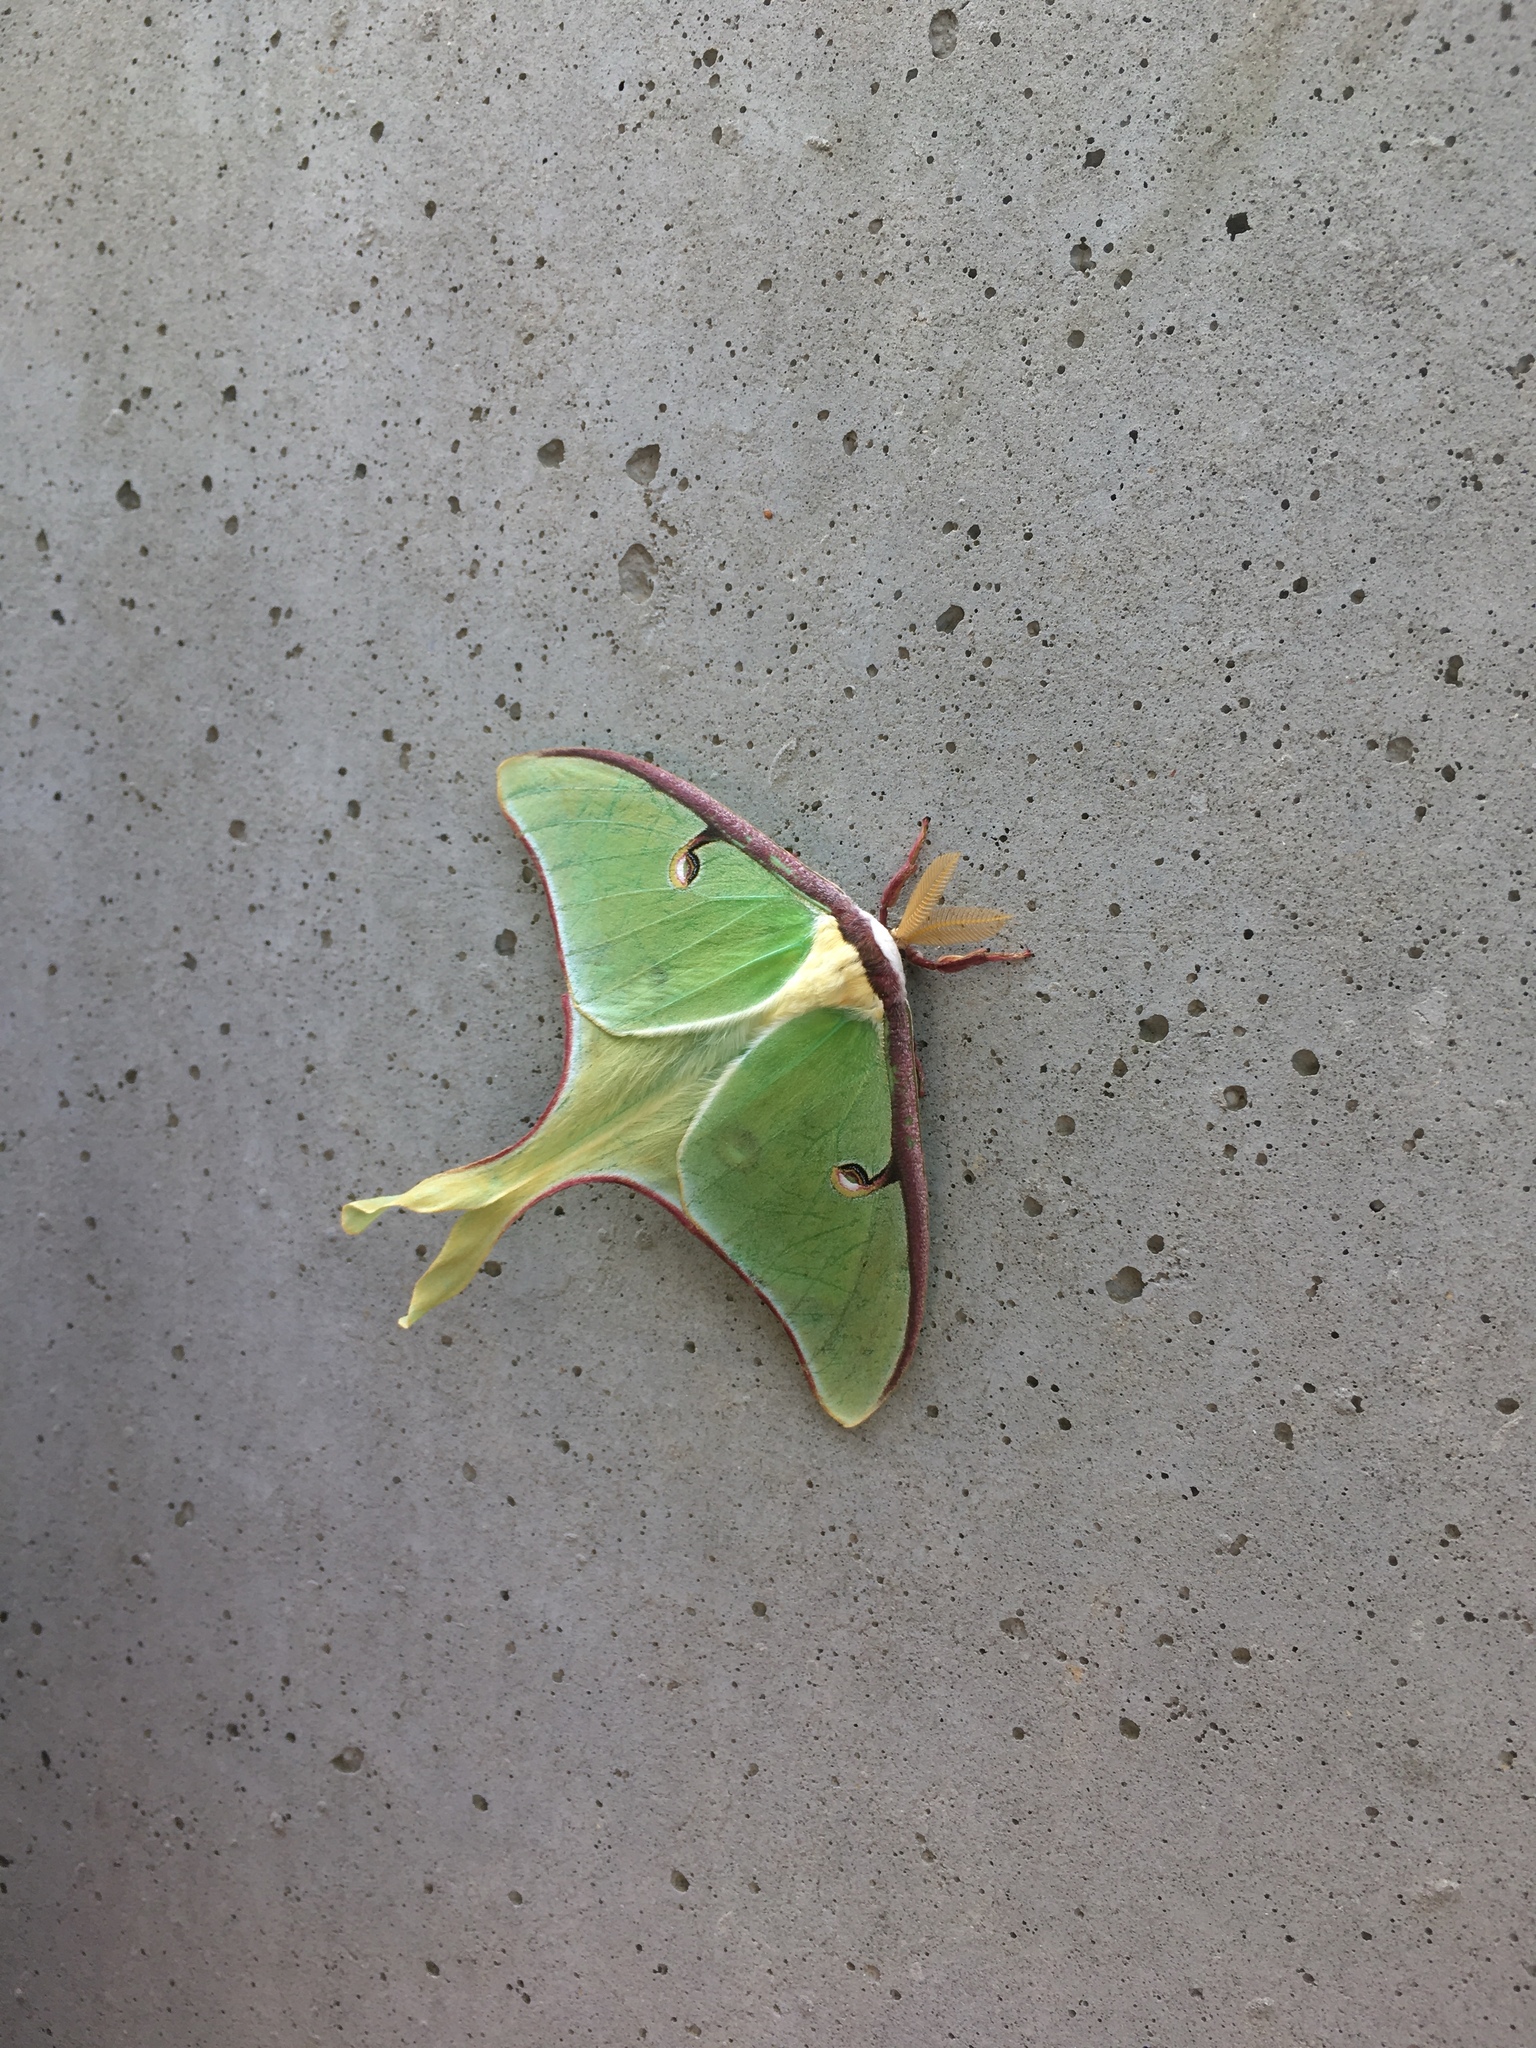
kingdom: Animalia
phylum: Arthropoda
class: Insecta
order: Lepidoptera
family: Saturniidae
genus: Actias
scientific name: Actias luna
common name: Luna moth
